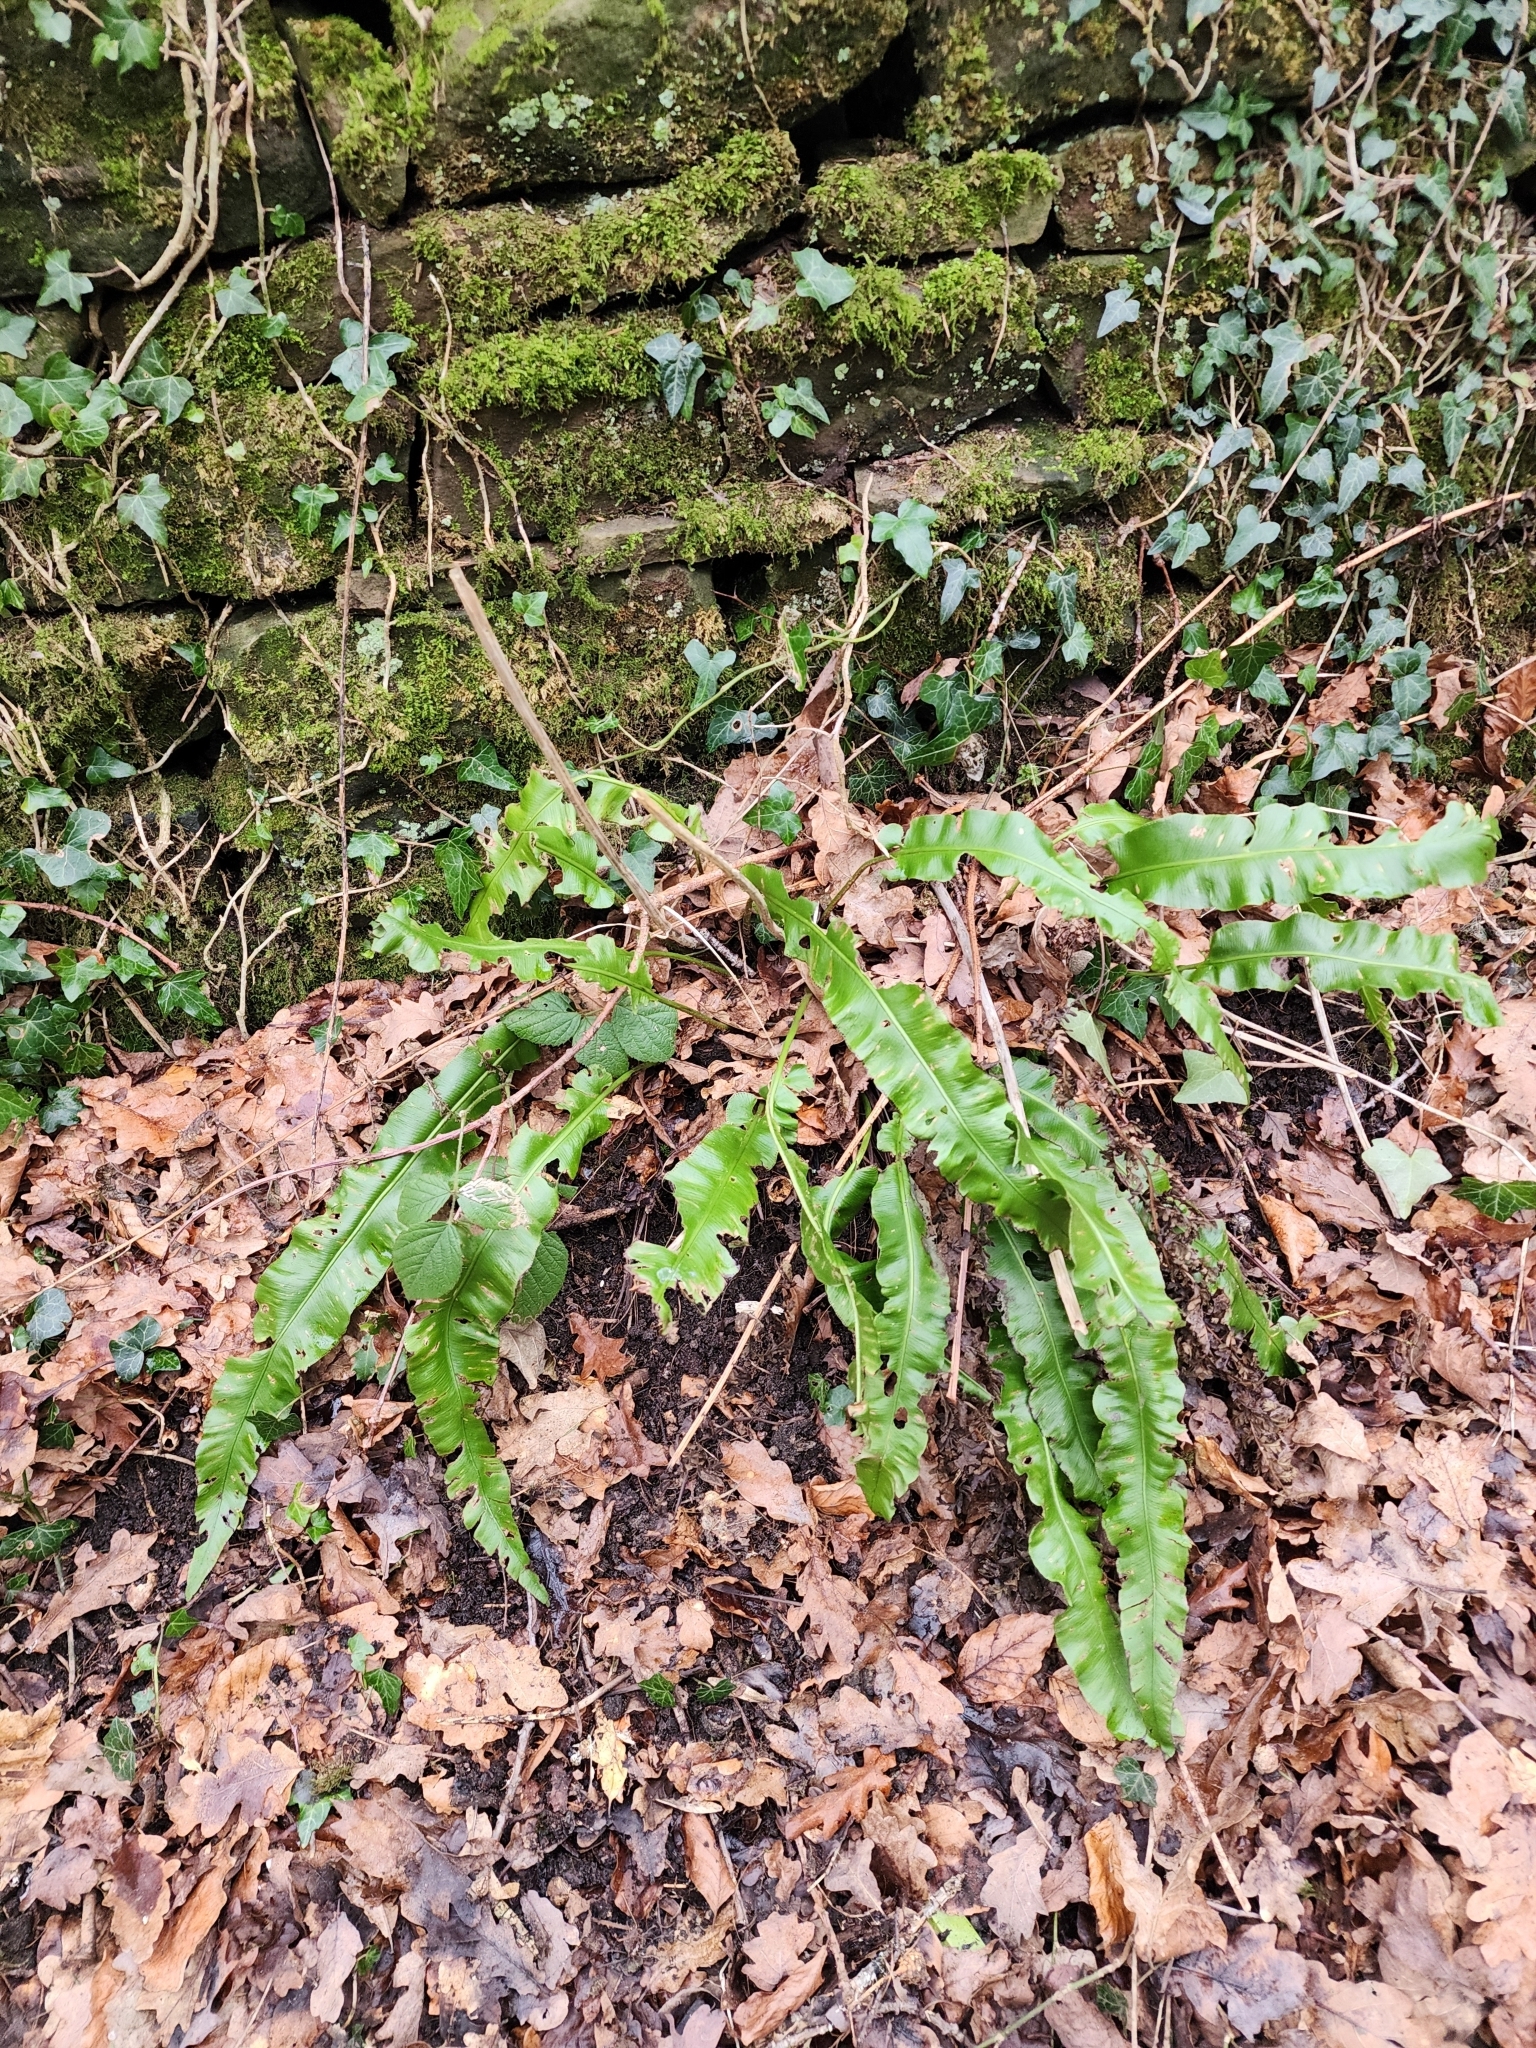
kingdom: Plantae
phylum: Tracheophyta
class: Polypodiopsida
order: Polypodiales
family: Aspleniaceae
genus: Asplenium
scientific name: Asplenium scolopendrium
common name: Hart's-tongue fern
